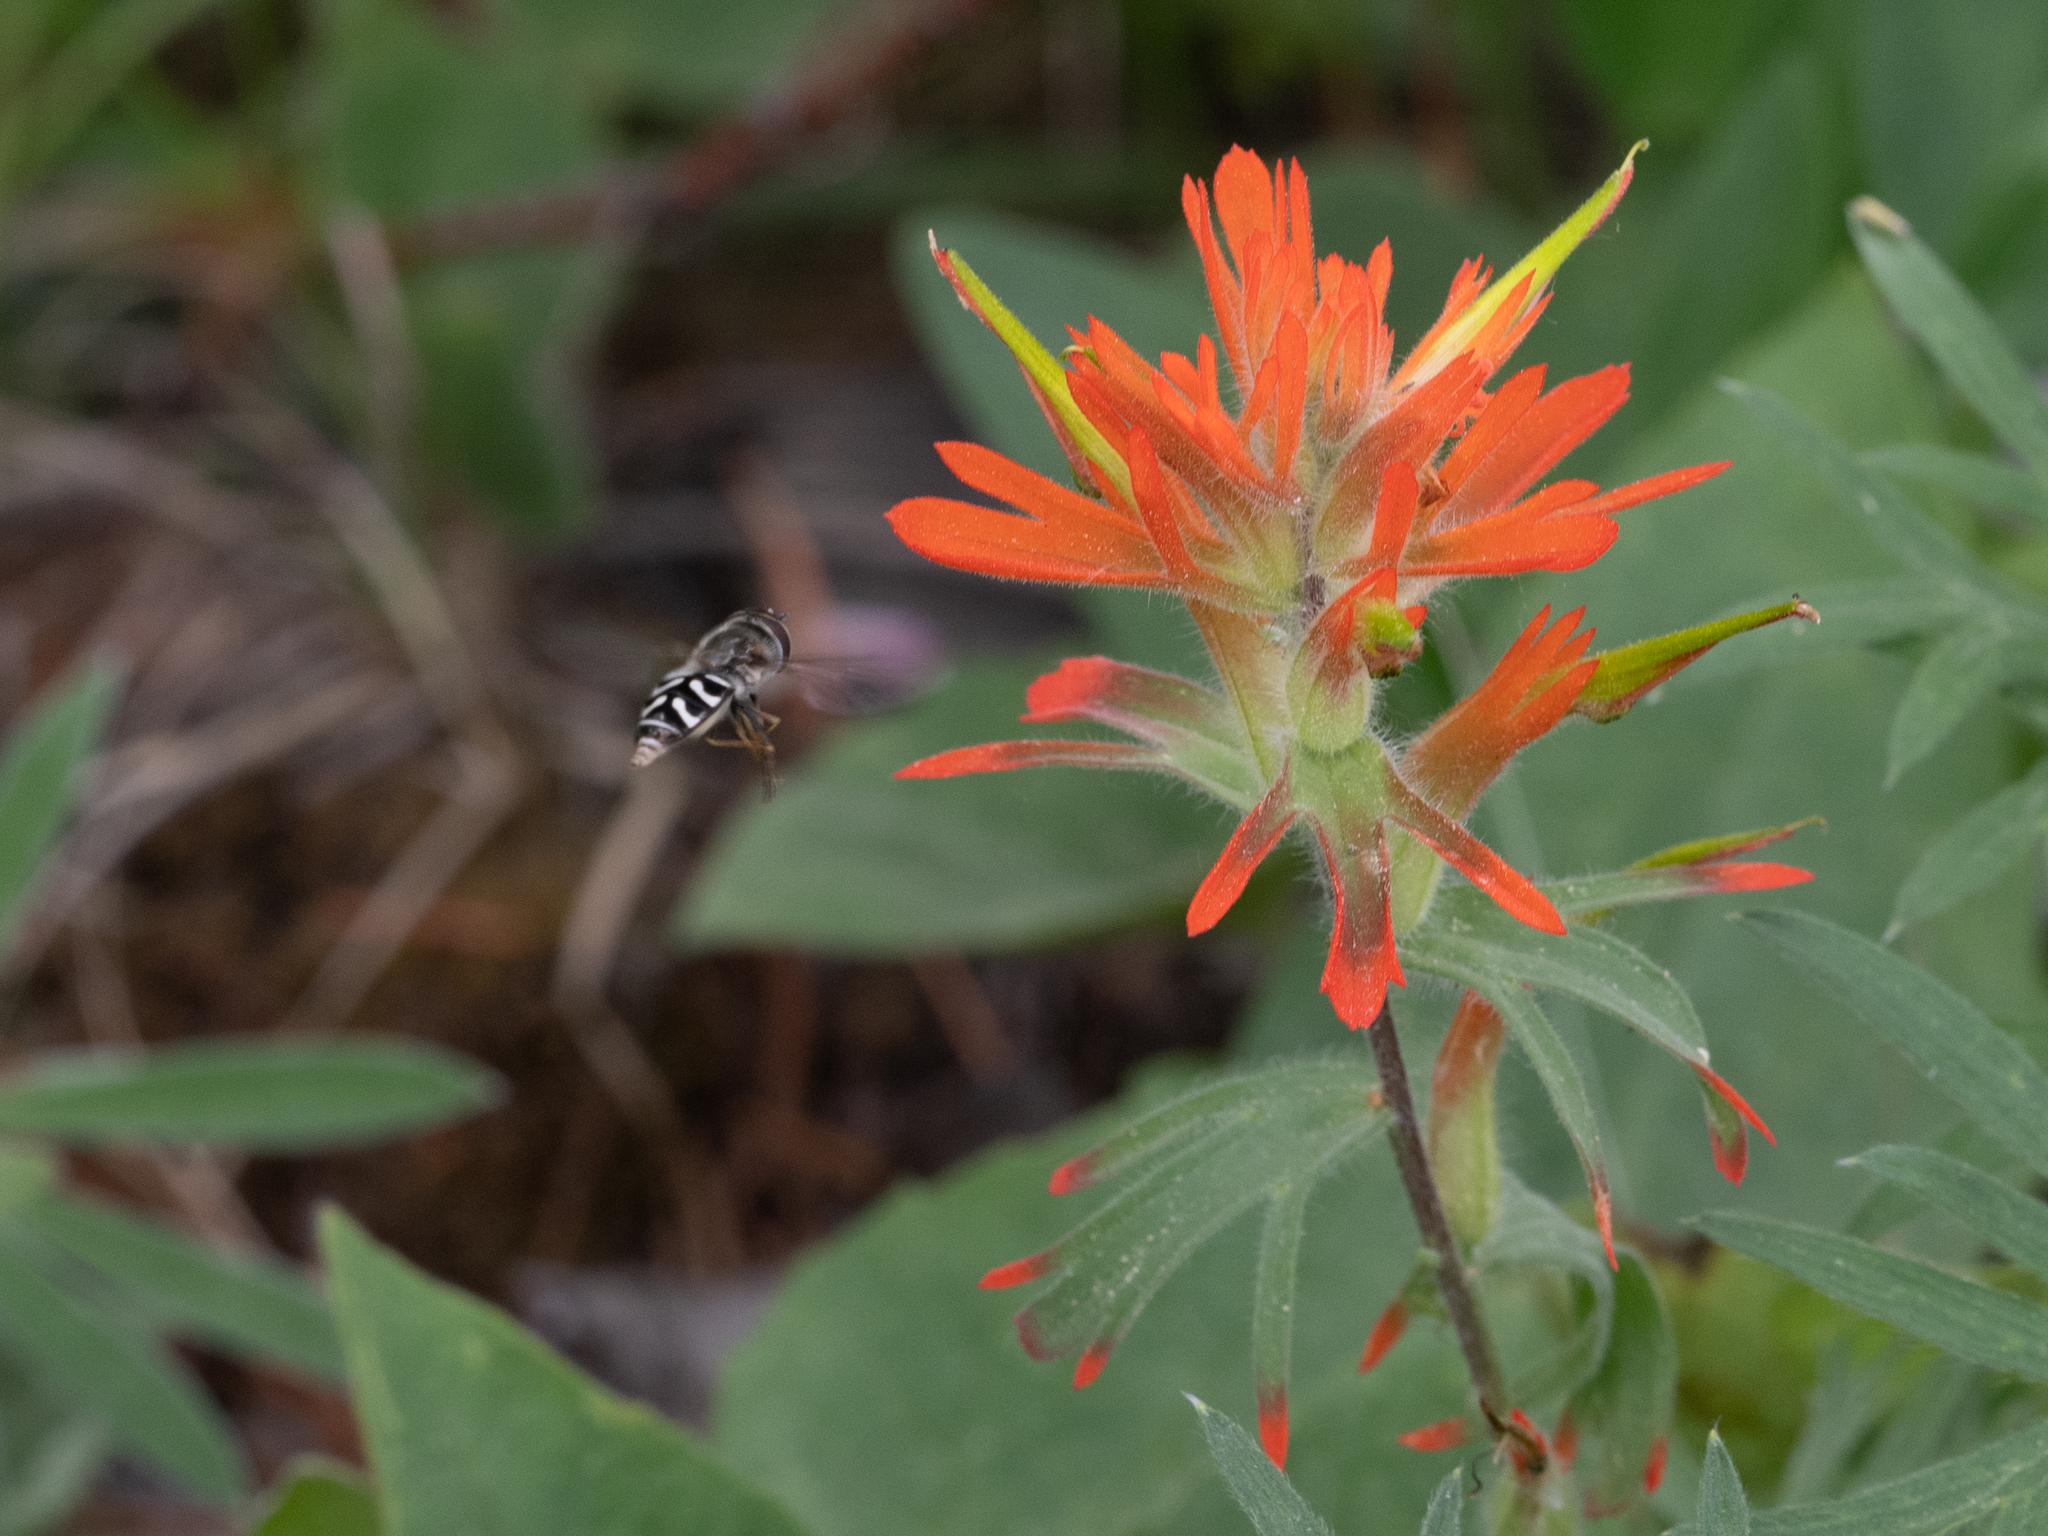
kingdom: Animalia
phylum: Arthropoda
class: Insecta
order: Diptera
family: Syrphidae
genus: Scaeva
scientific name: Scaeva affinis
